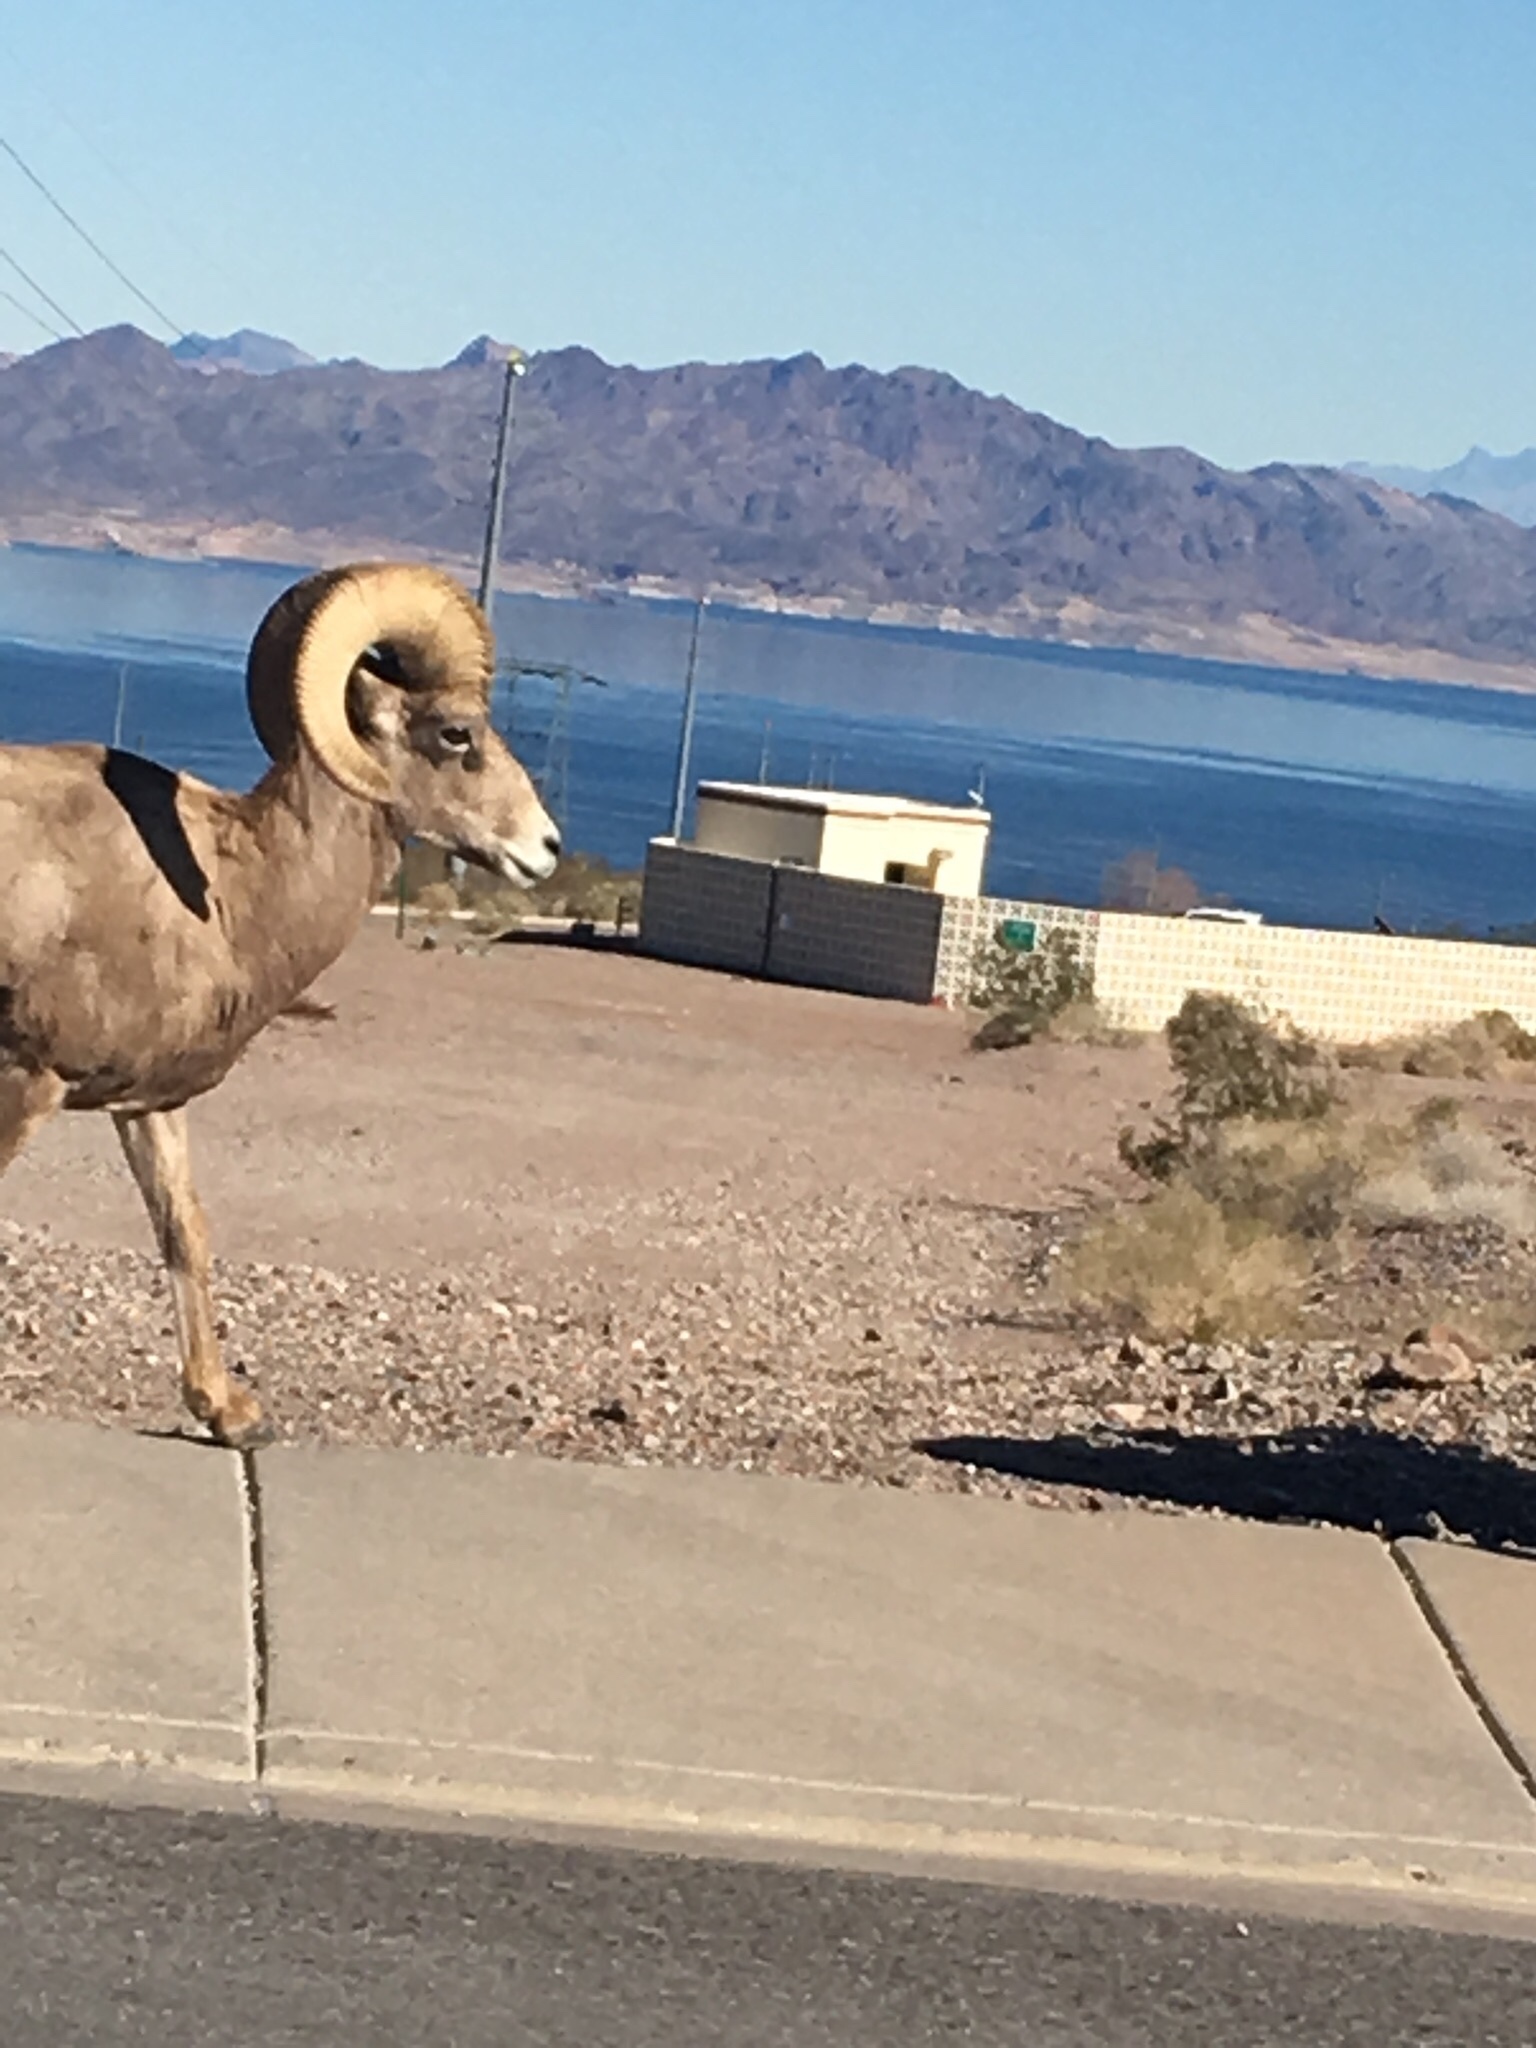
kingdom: Animalia
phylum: Chordata
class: Mammalia
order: Artiodactyla
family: Bovidae
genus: Ovis
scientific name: Ovis canadensis
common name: Bighorn sheep
